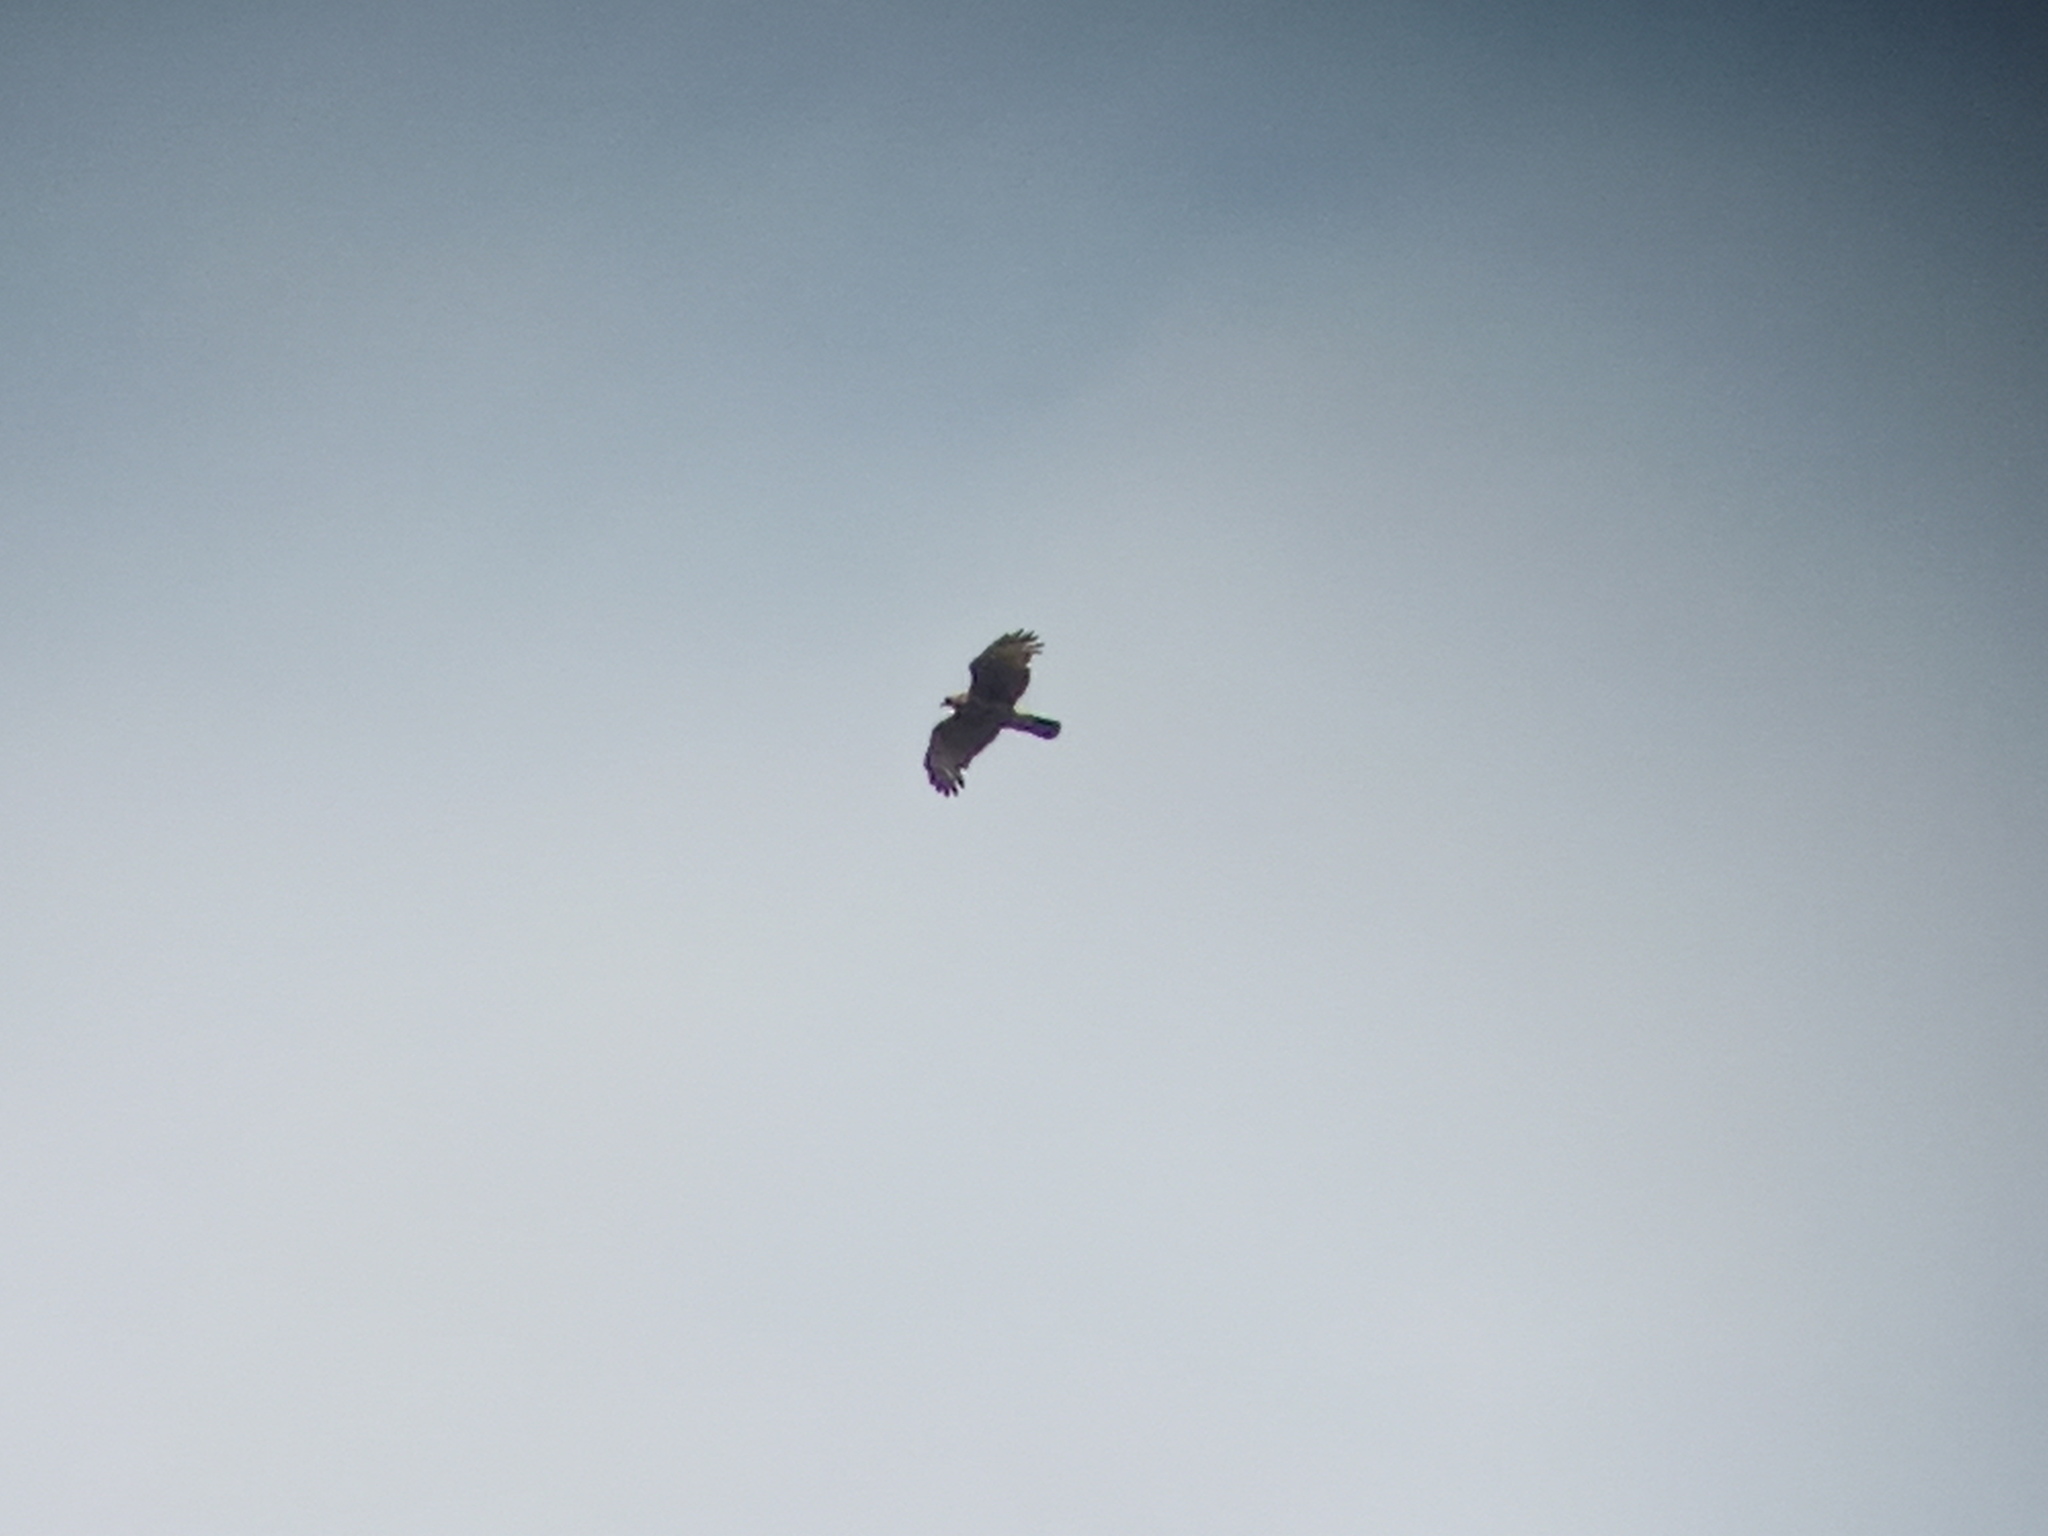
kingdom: Animalia
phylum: Chordata
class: Aves
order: Accipitriformes
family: Accipitridae
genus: Parabuteo
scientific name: Parabuteo unicinctus
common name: Harris's hawk
